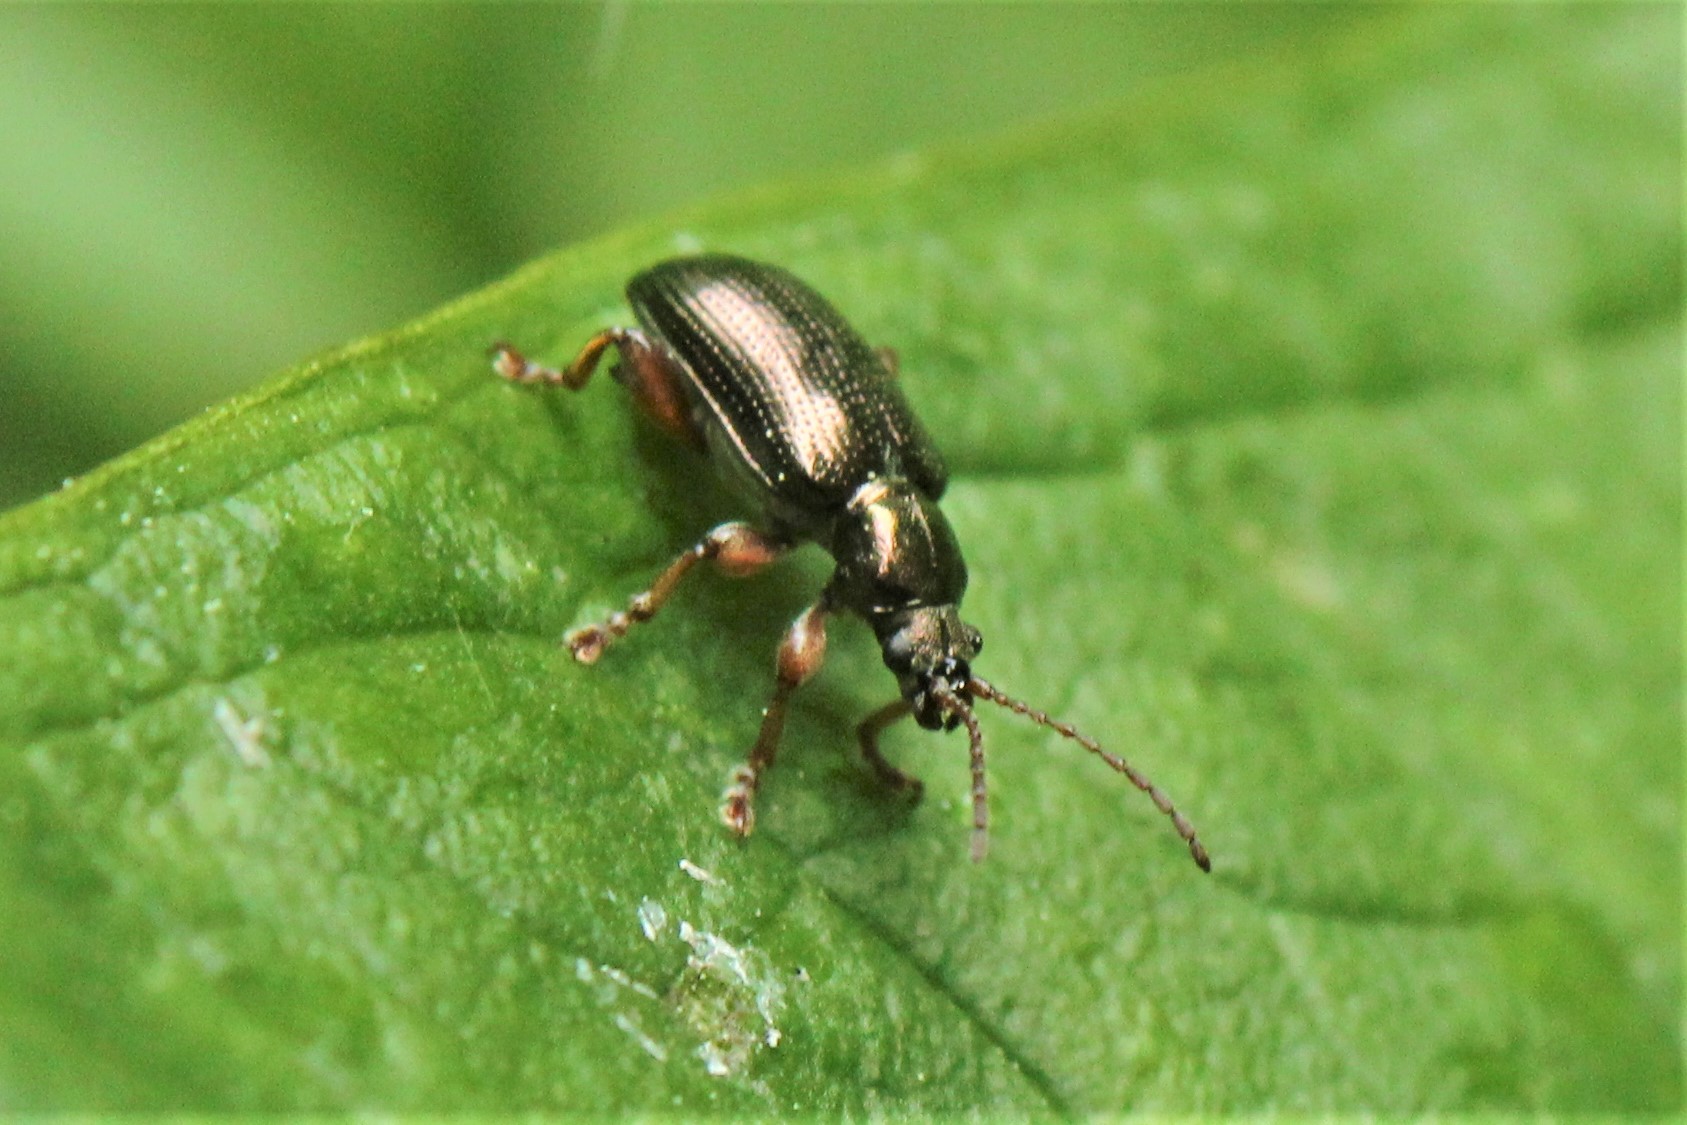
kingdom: Animalia
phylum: Arthropoda
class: Insecta
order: Coleoptera
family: Chrysomelidae
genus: Plateumaris
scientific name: Plateumaris rufa
